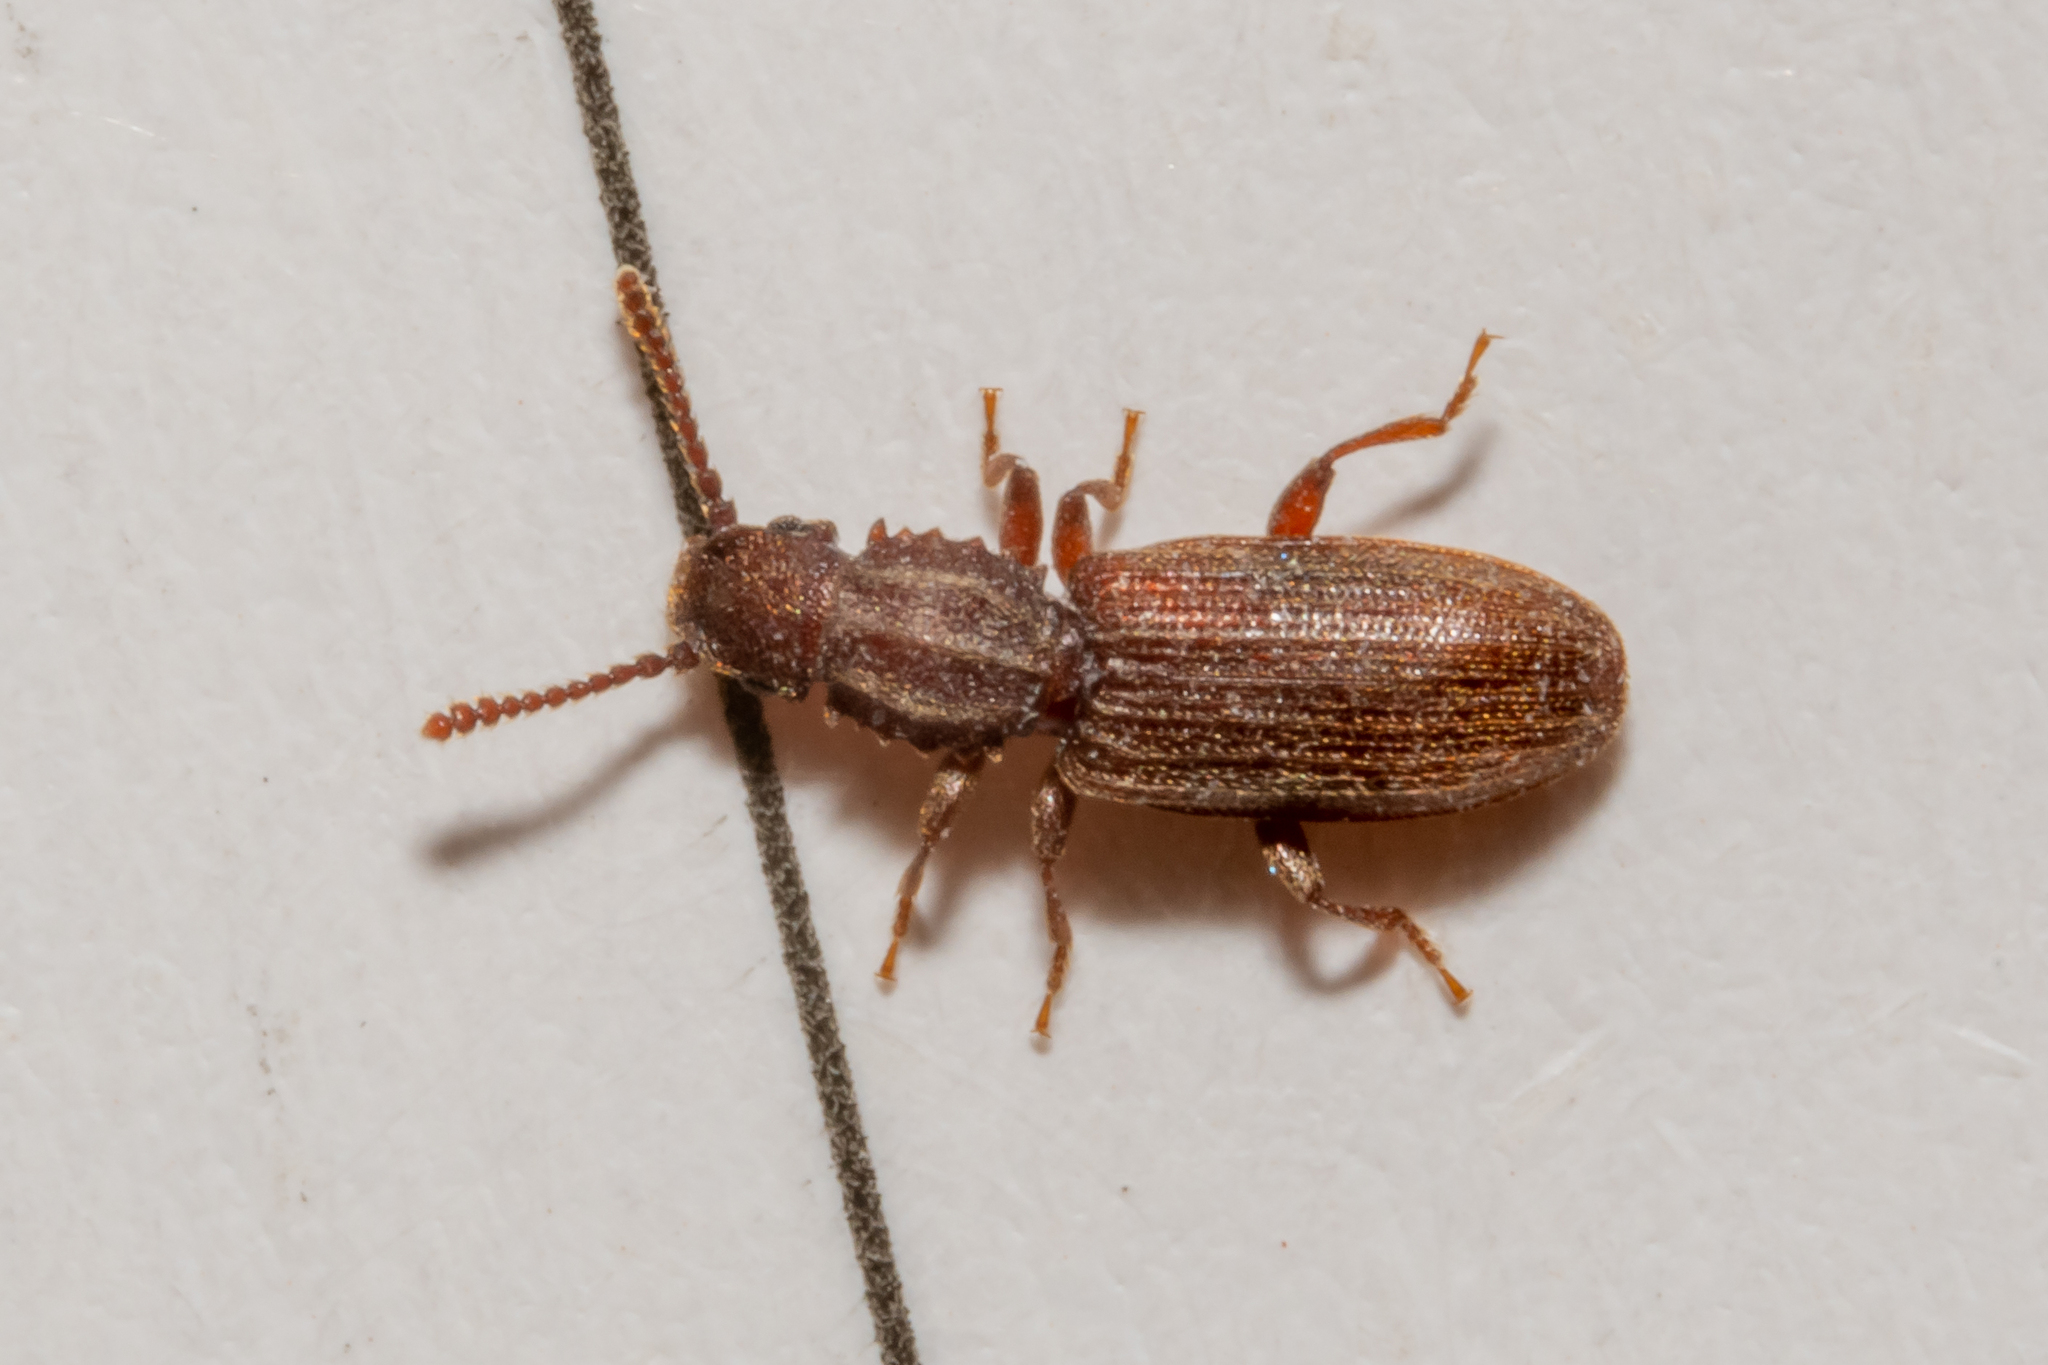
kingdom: Animalia
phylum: Arthropoda
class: Insecta
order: Coleoptera
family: Silvanidae
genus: Oryzaephilus
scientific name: Oryzaephilus surinamensis
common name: Sawtoothed grain beetle
